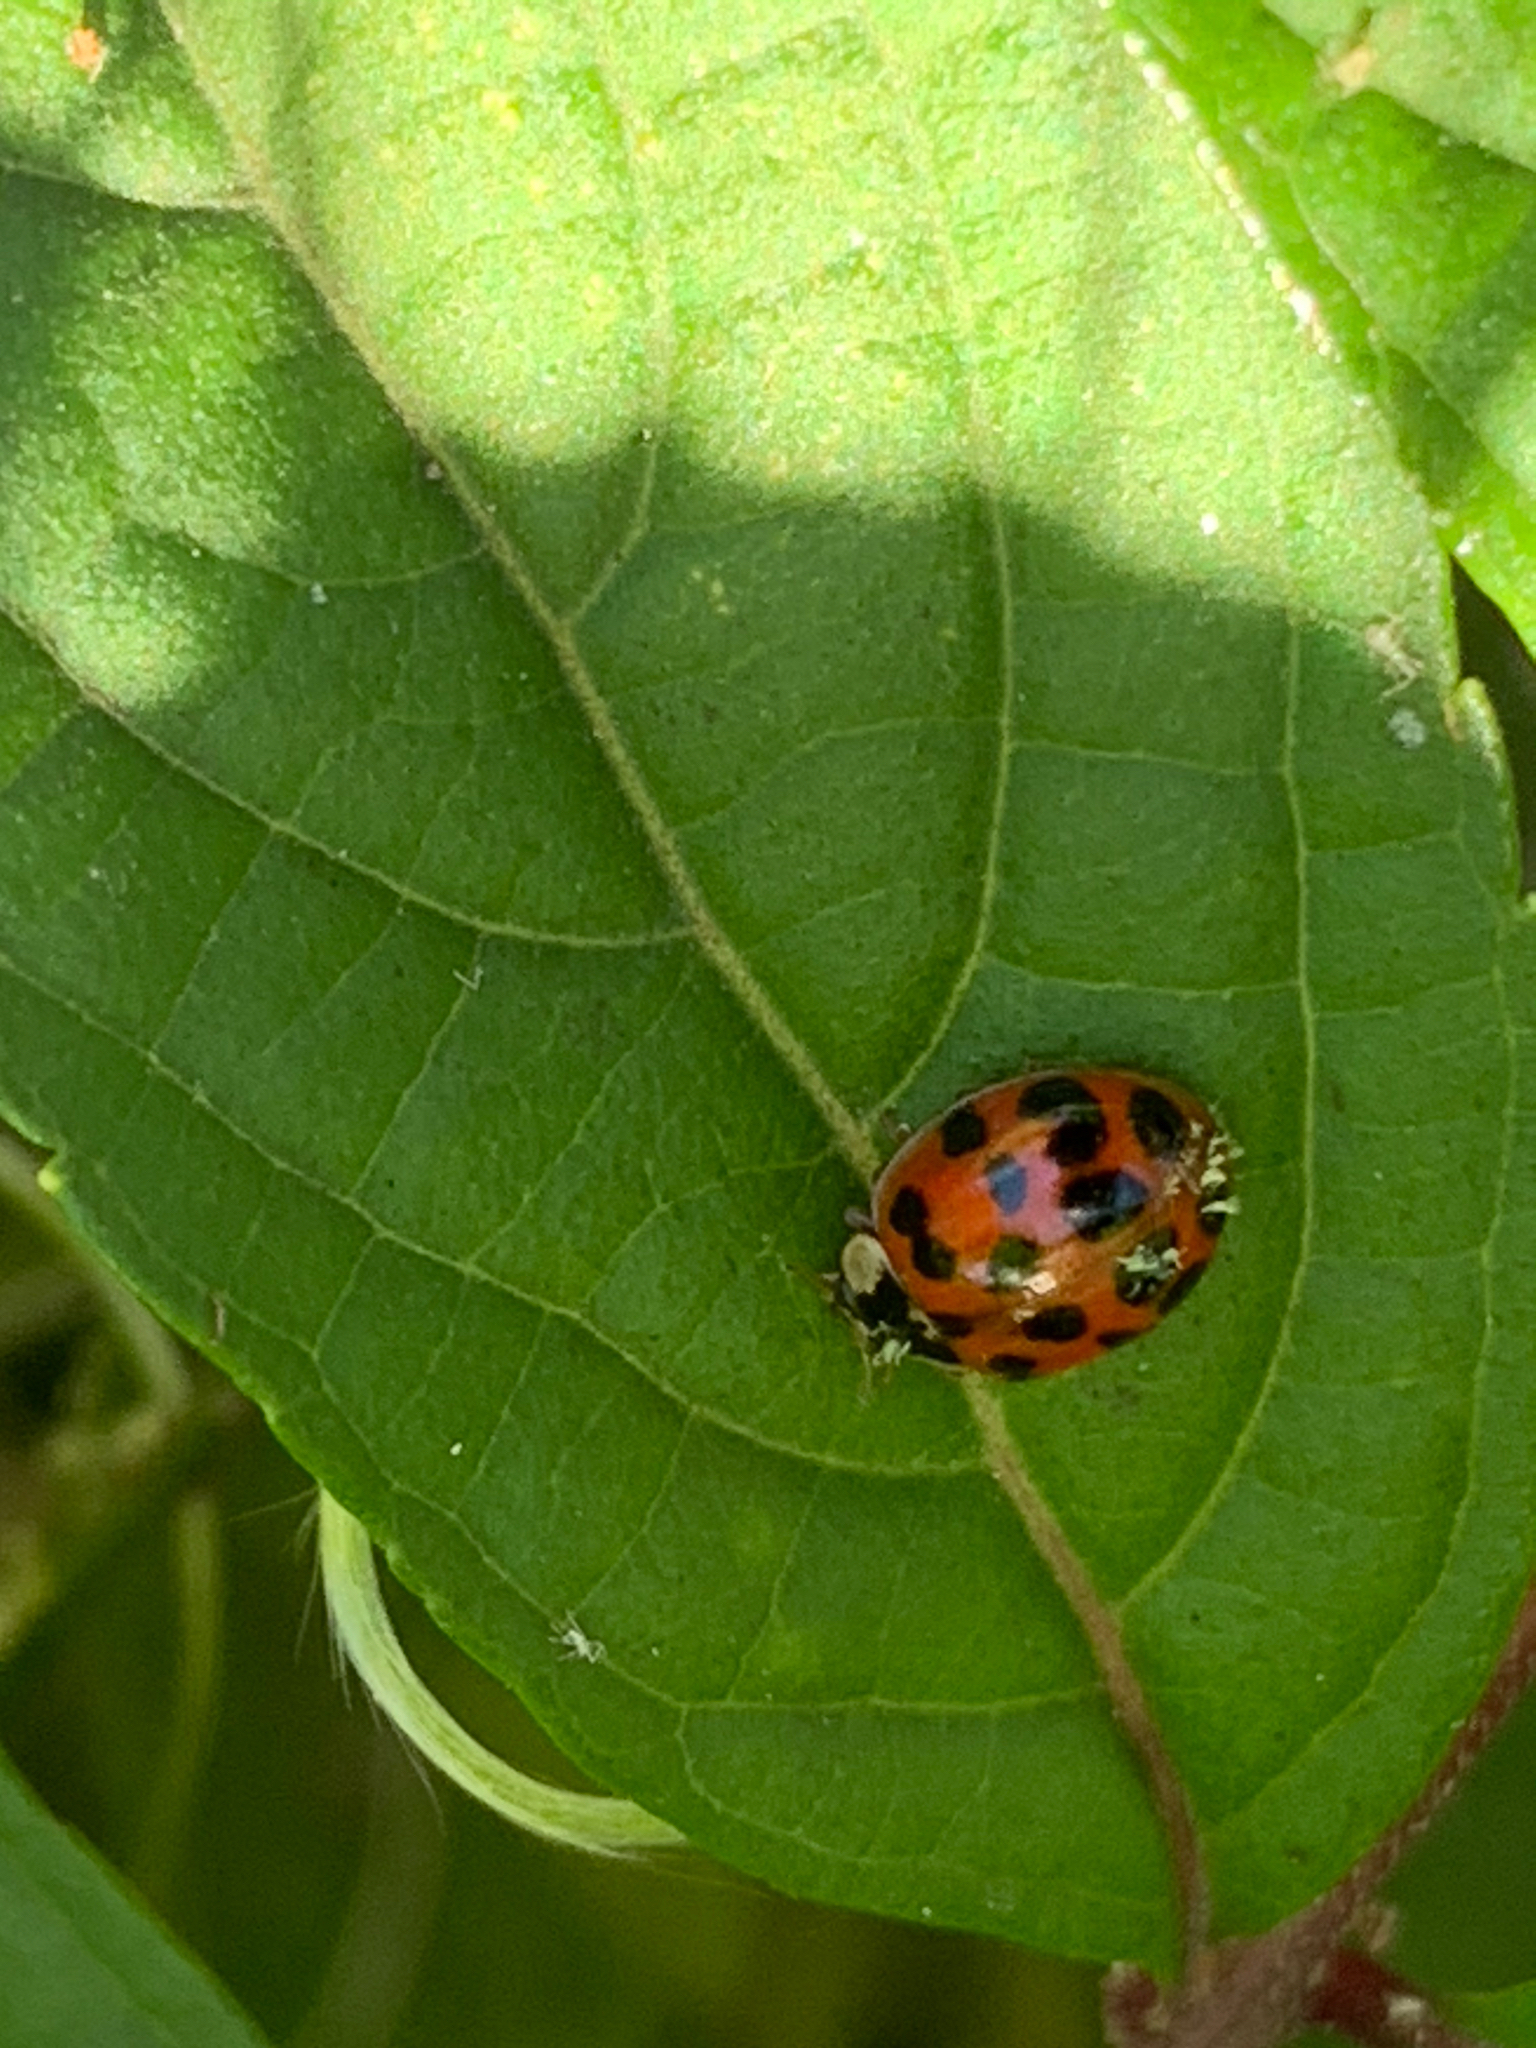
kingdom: Animalia
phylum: Arthropoda
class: Insecta
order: Coleoptera
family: Coccinellidae
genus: Harmonia
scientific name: Harmonia axyridis
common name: Harlequin ladybird
